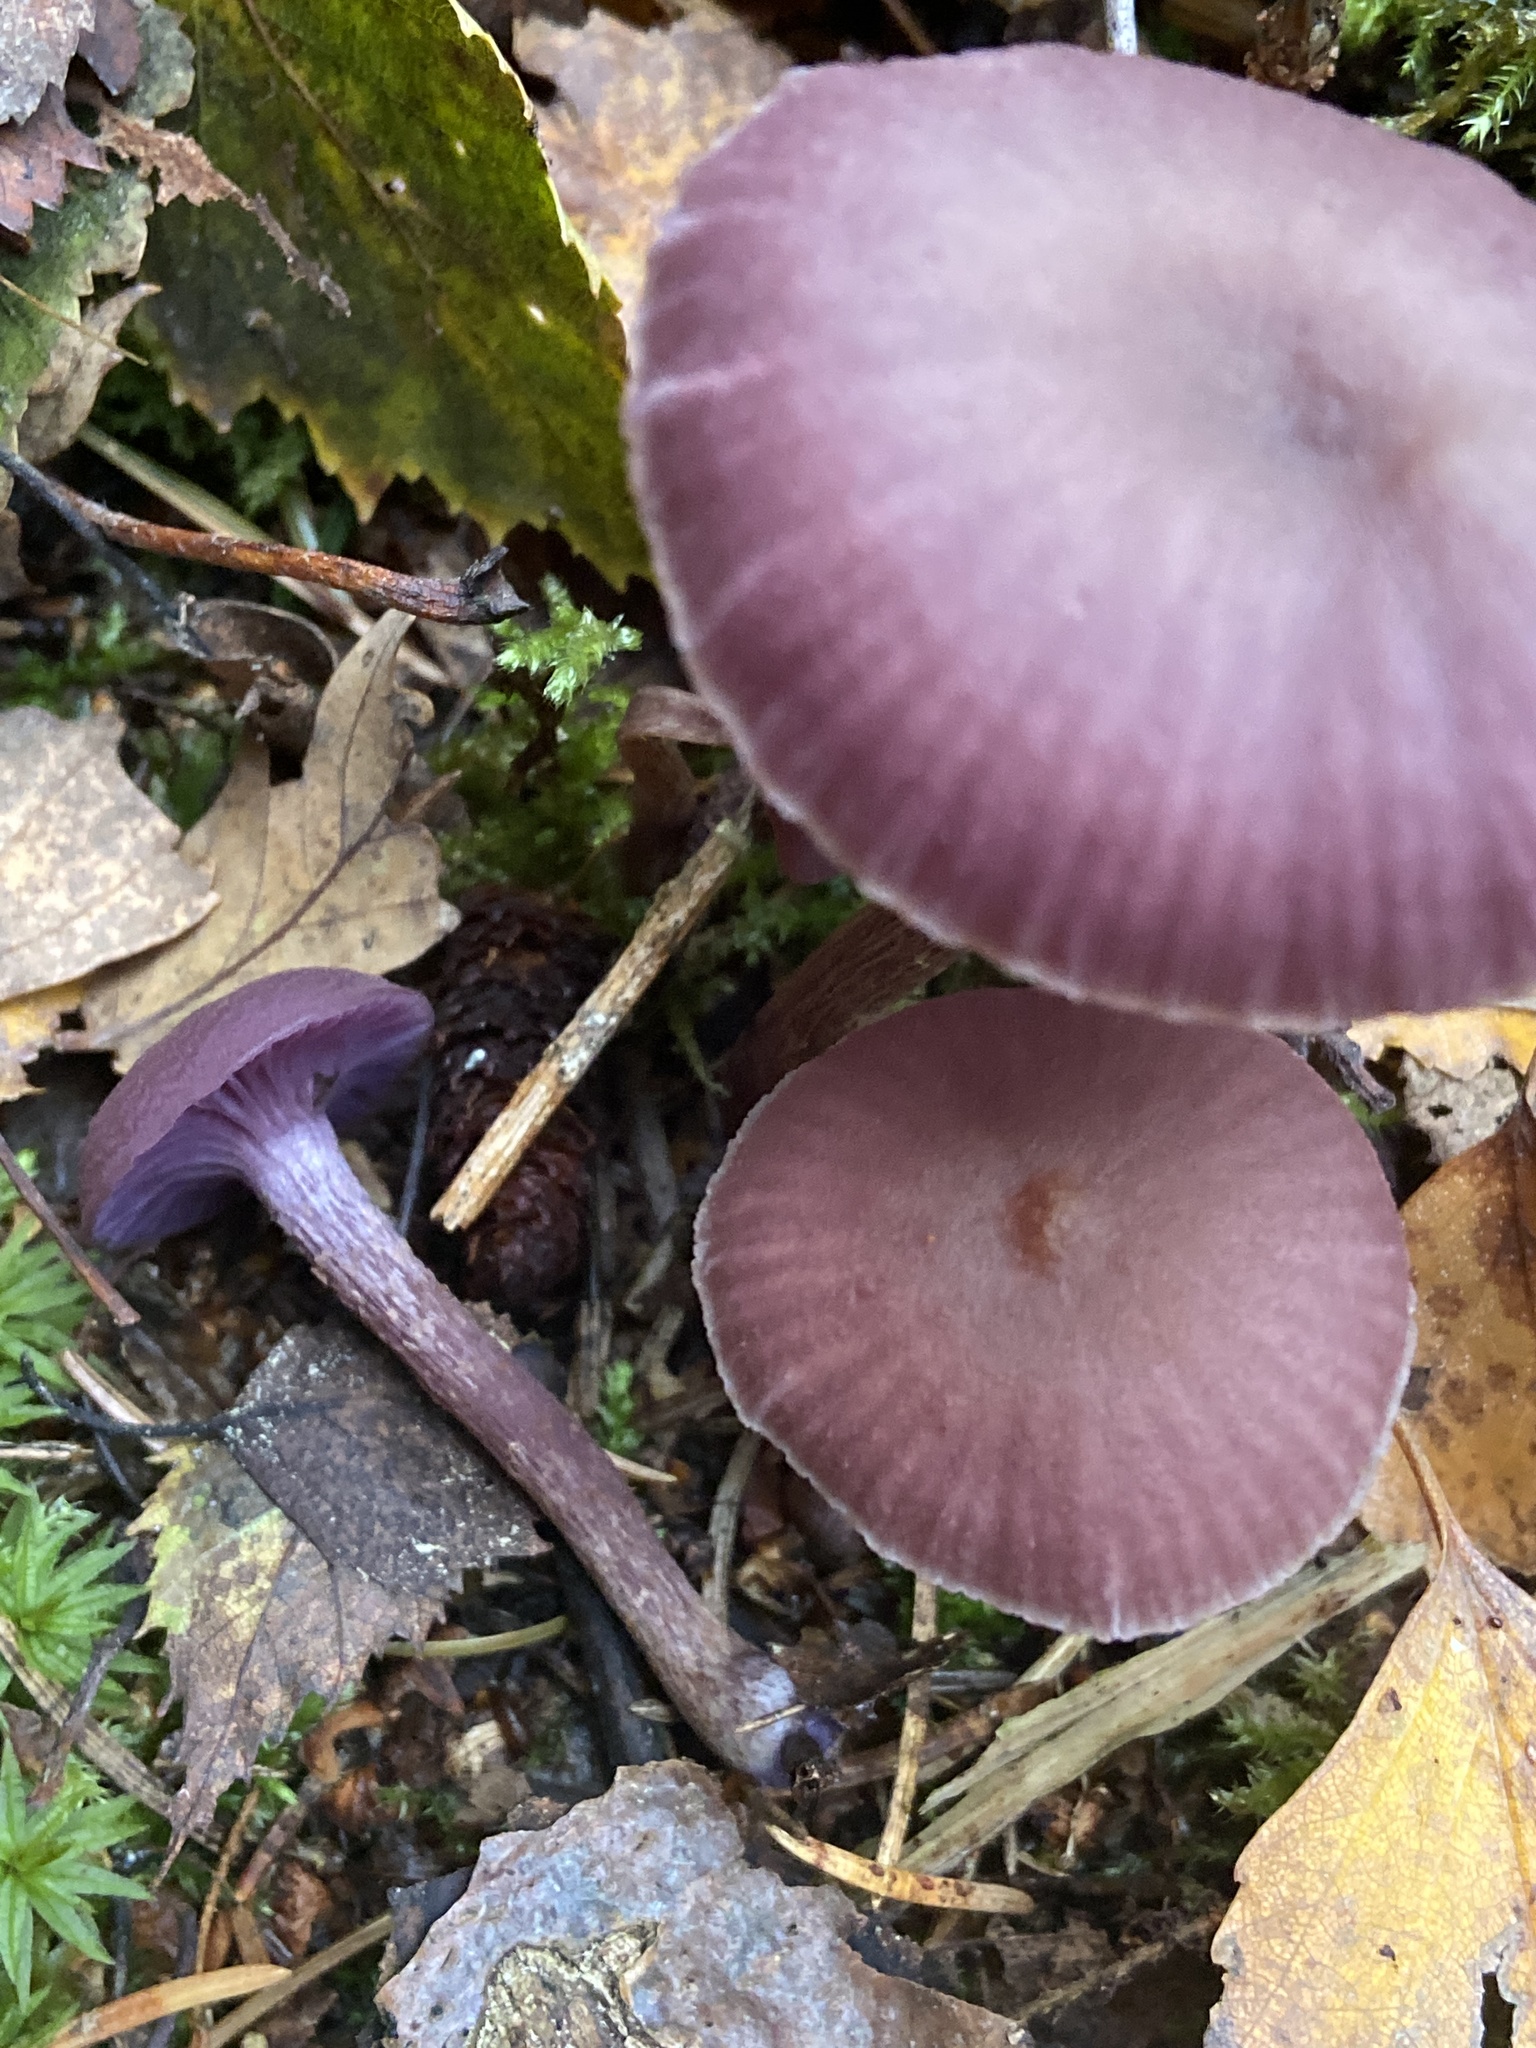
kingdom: Fungi
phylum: Basidiomycota
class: Agaricomycetes
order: Agaricales
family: Hydnangiaceae
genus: Laccaria
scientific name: Laccaria amethystina
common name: Amethyst deceiver
